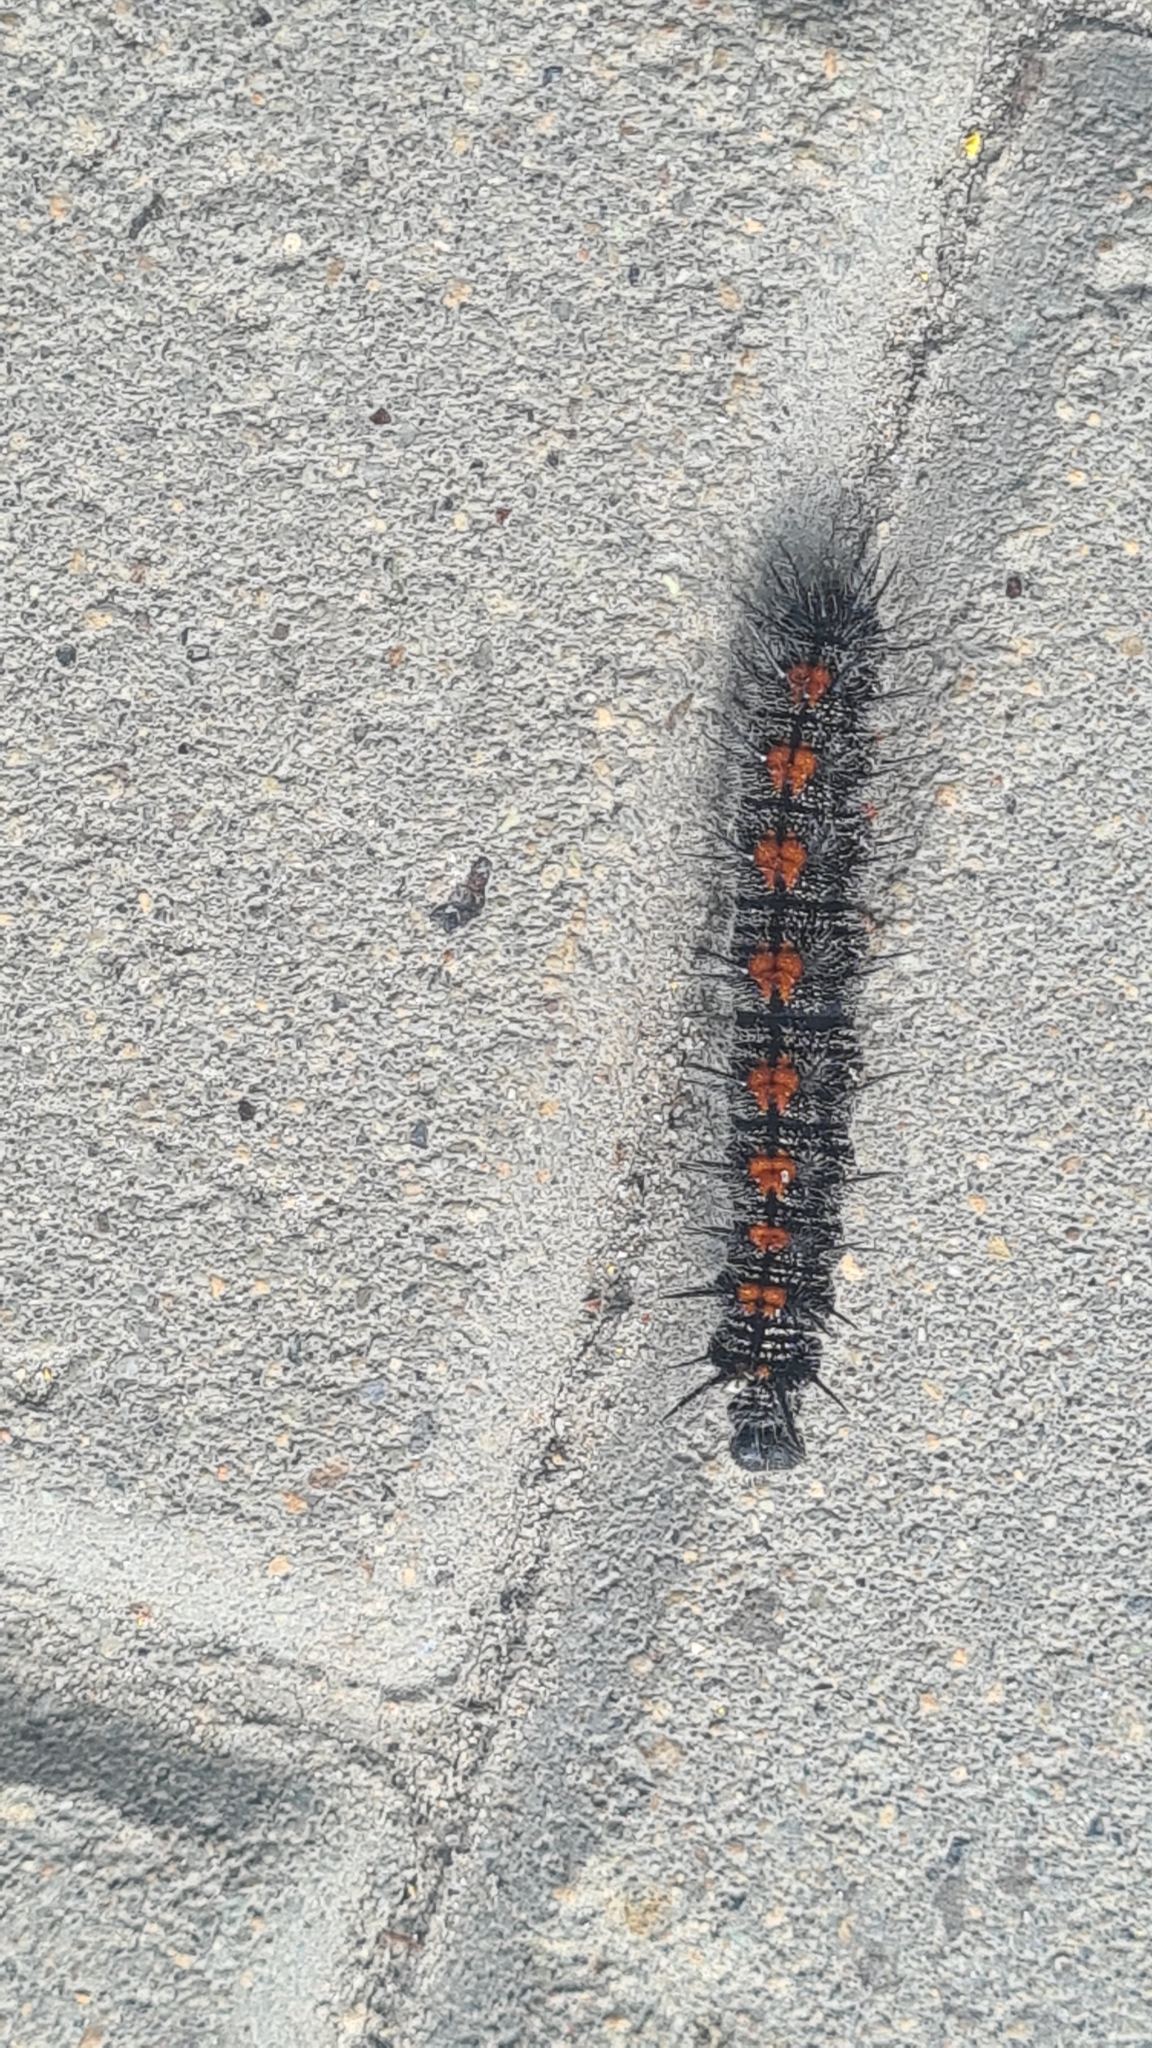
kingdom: Animalia
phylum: Arthropoda
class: Insecta
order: Lepidoptera
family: Nymphalidae
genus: Nymphalis
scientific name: Nymphalis antiopa
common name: Camberwell beauty
